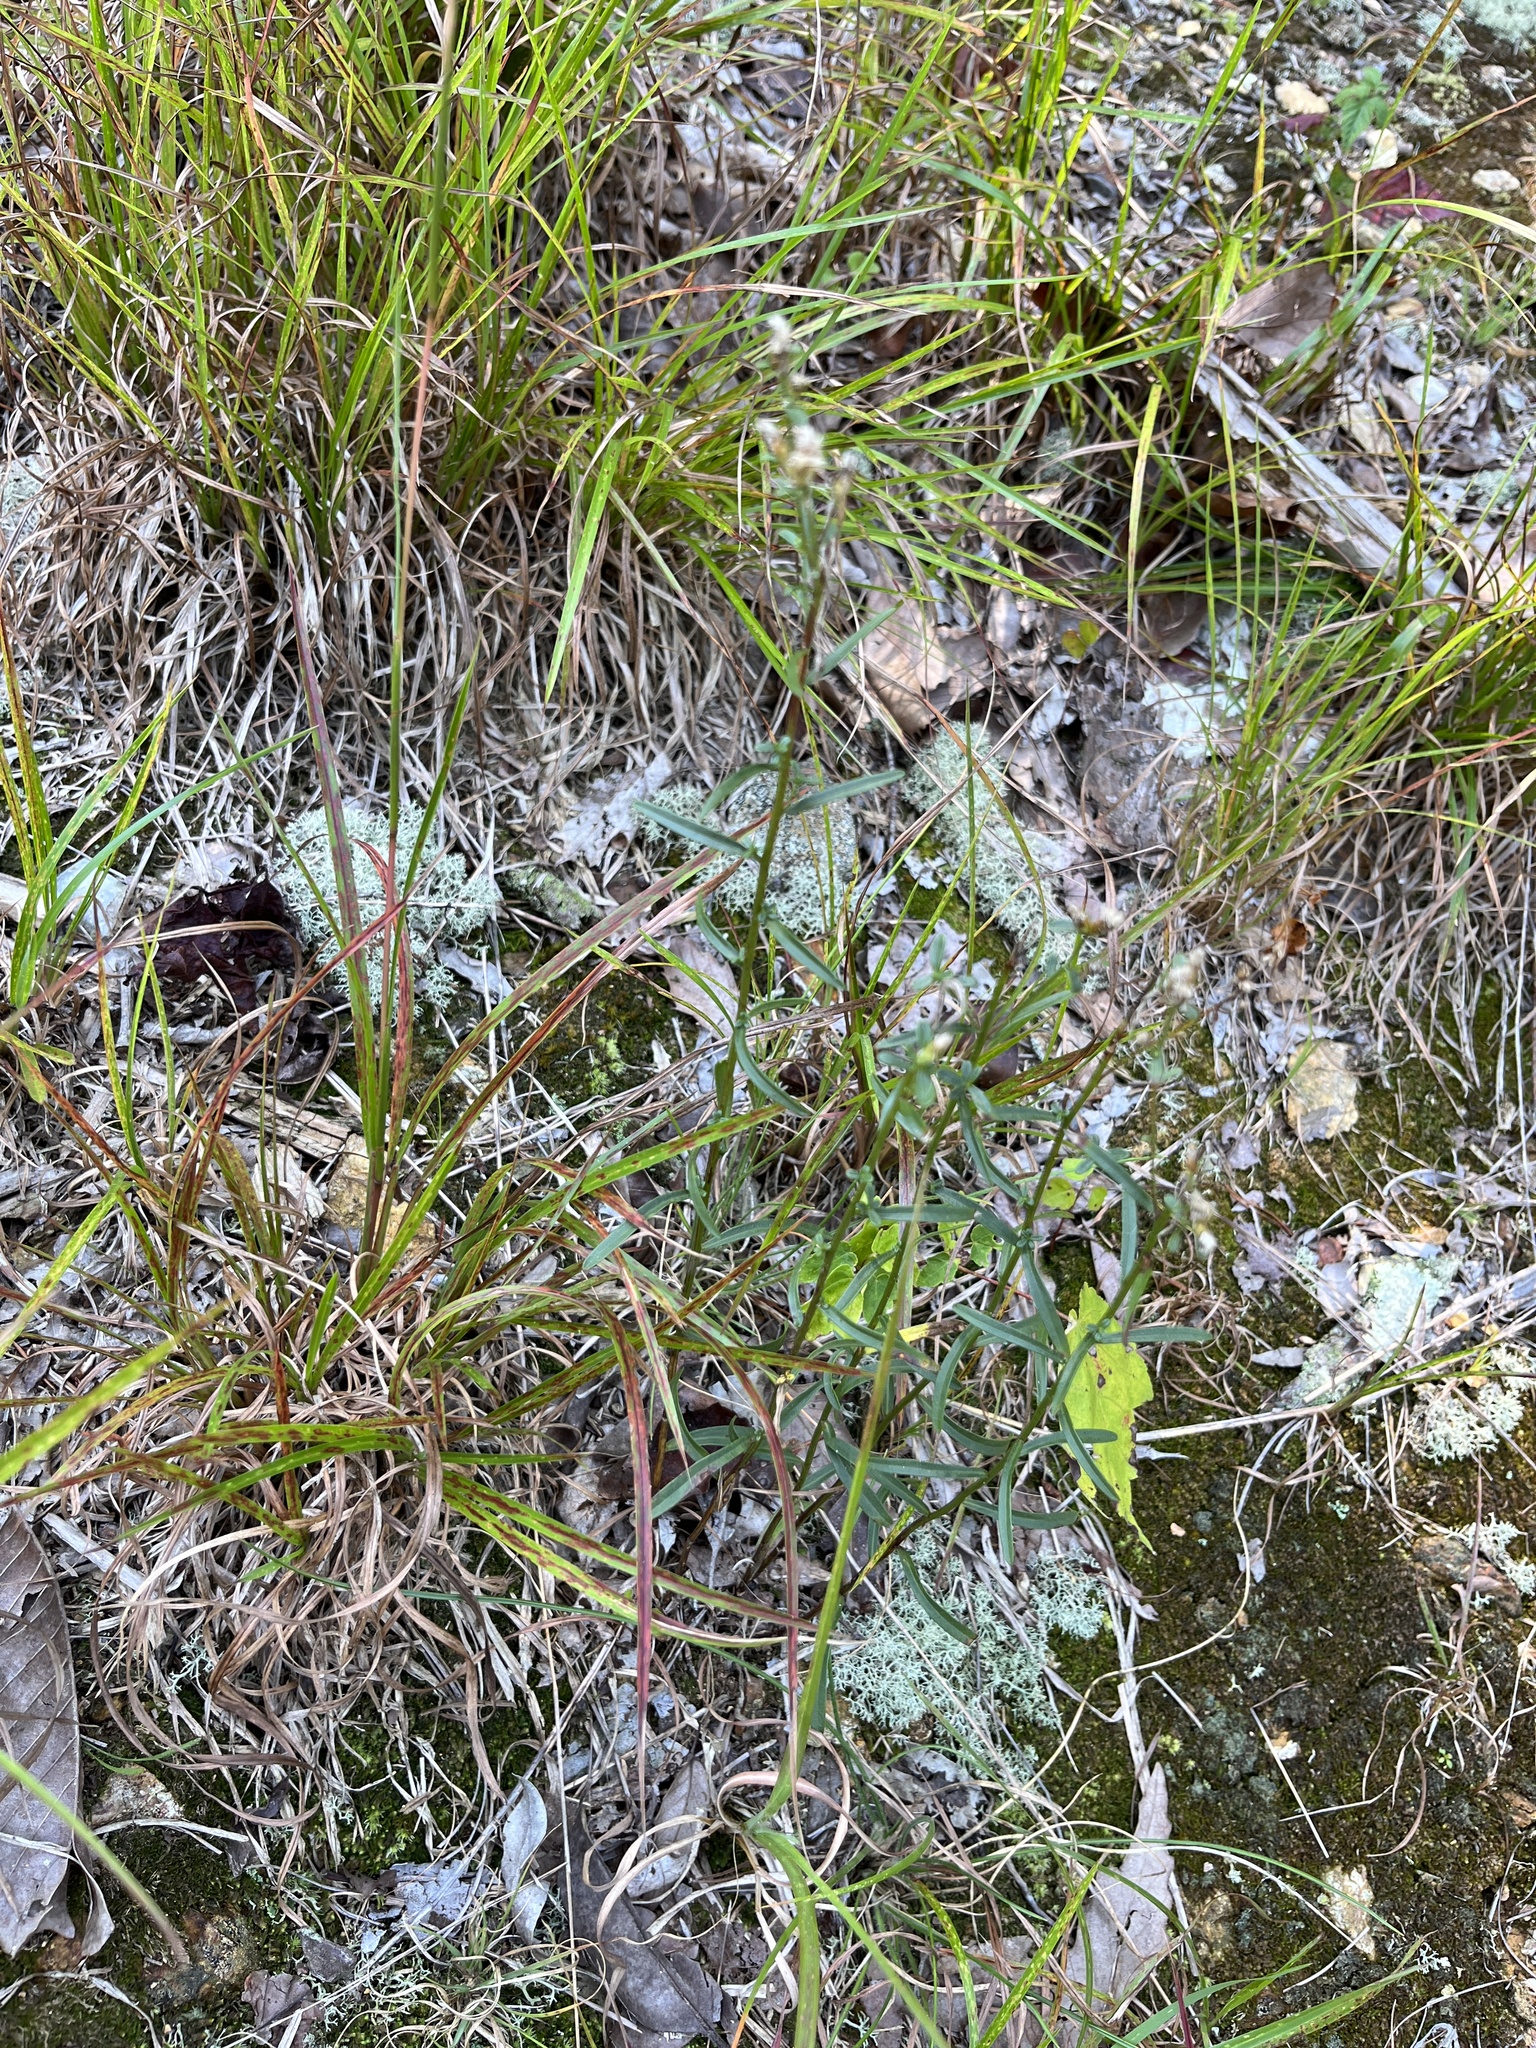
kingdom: Plantae
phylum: Tracheophyta
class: Magnoliopsida
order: Asterales
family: Asteraceae
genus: Sericocarpus
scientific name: Sericocarpus linifolius
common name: Narrow-leaf aster
